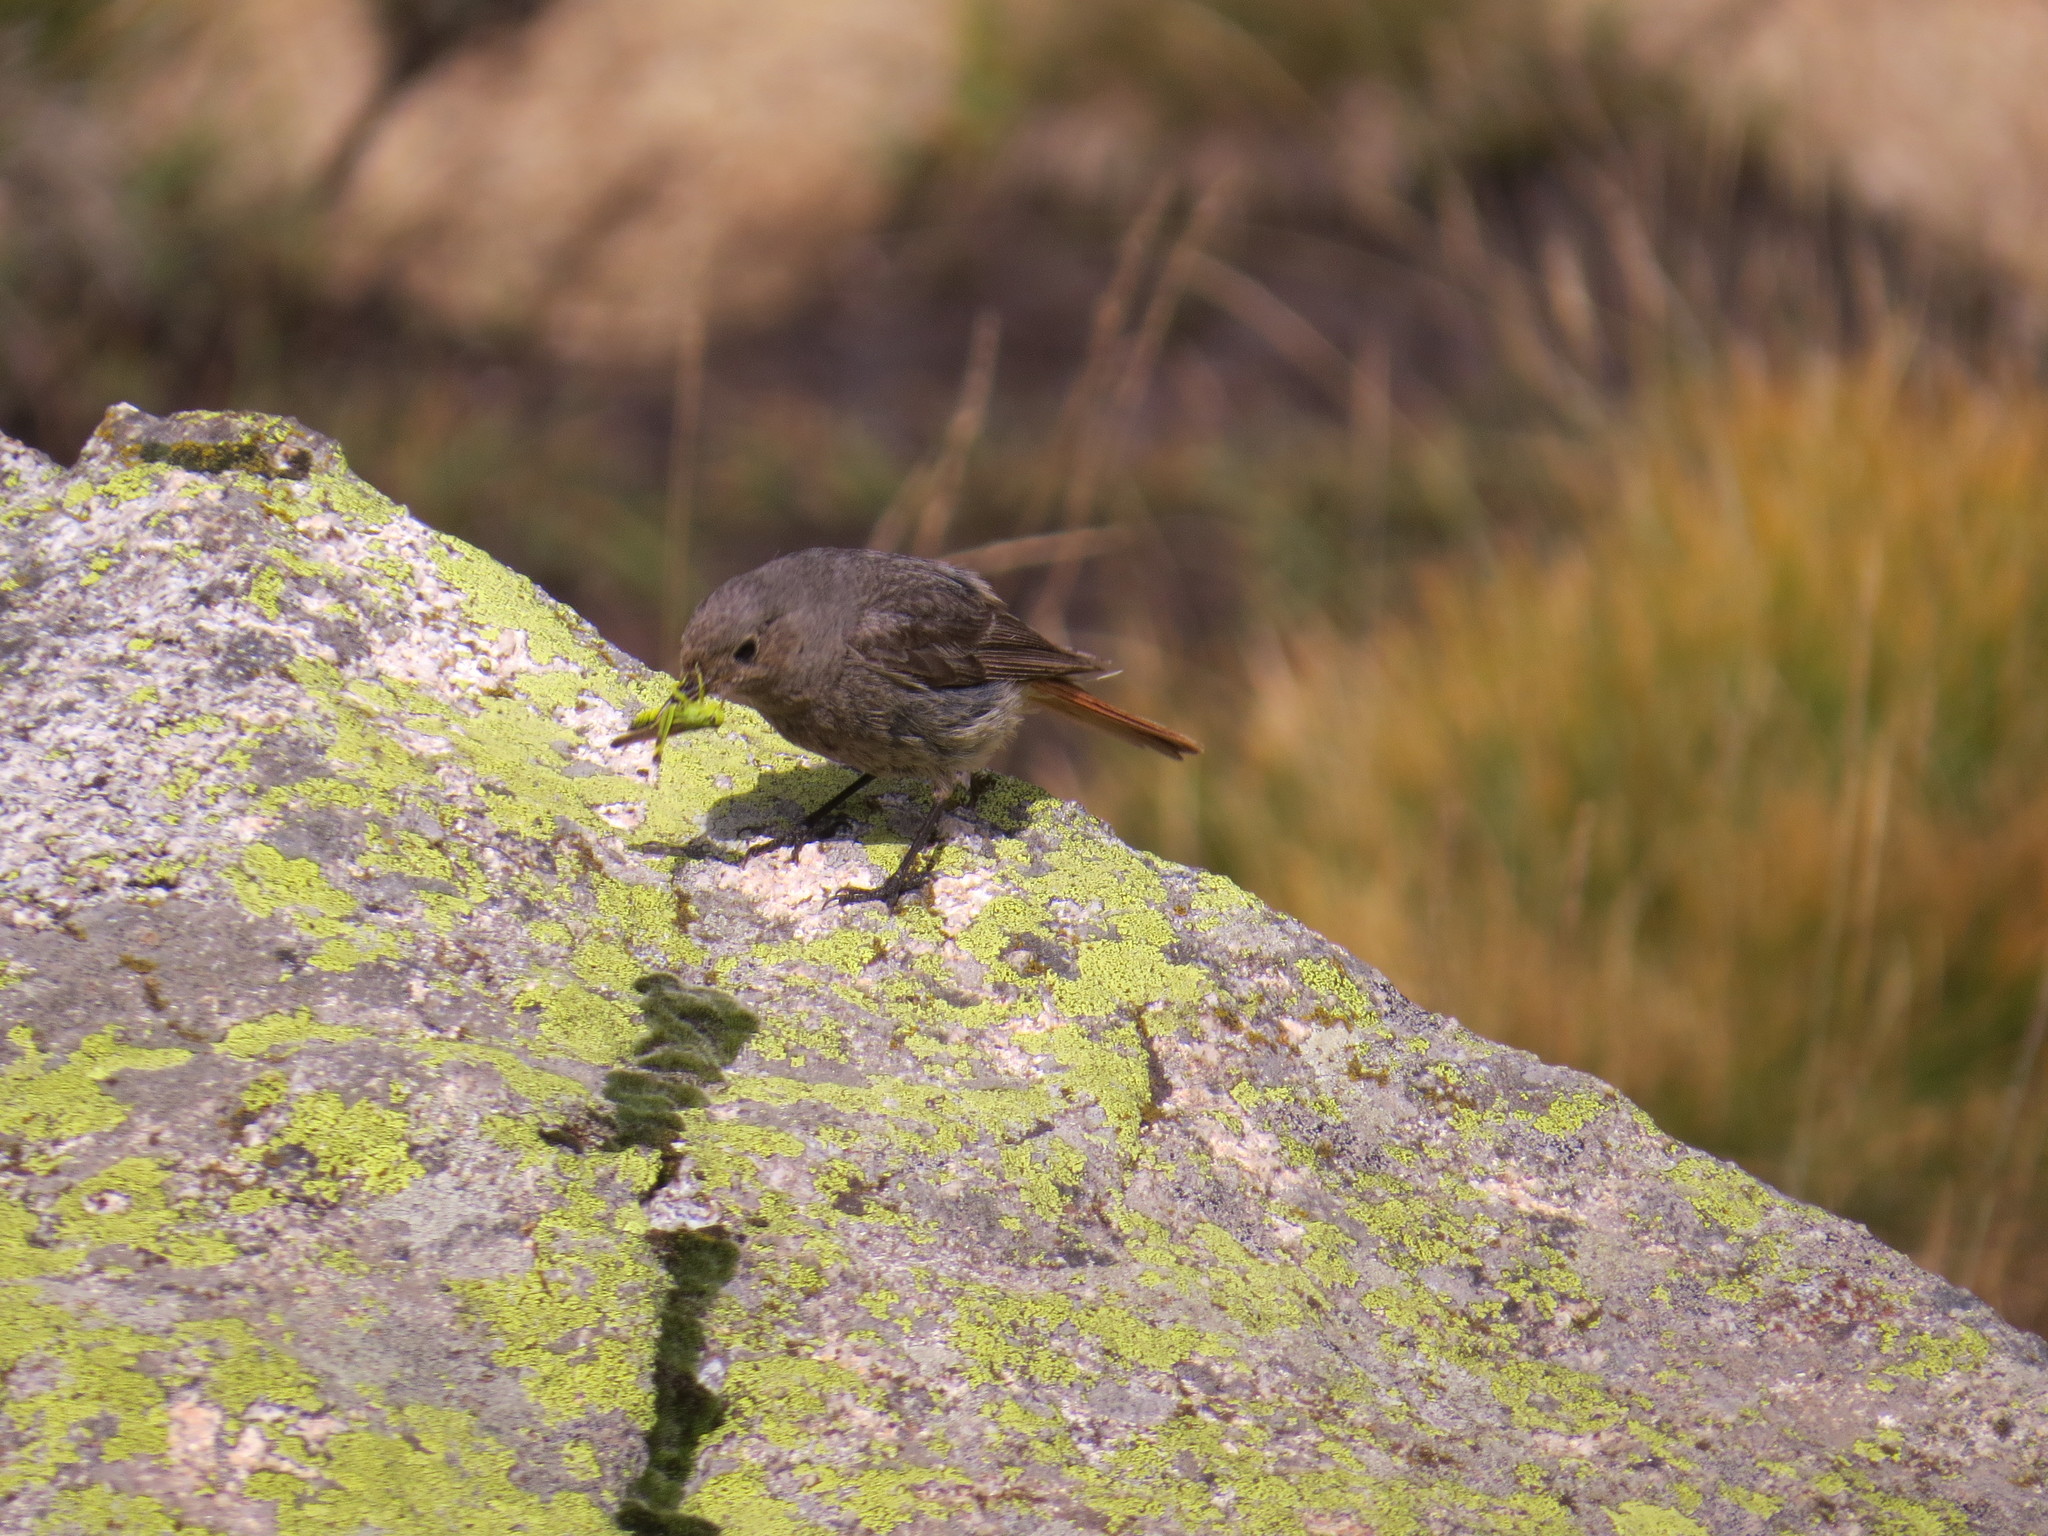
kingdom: Animalia
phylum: Chordata
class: Aves
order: Passeriformes
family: Muscicapidae
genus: Phoenicurus
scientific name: Phoenicurus ochruros
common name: Black redstart
